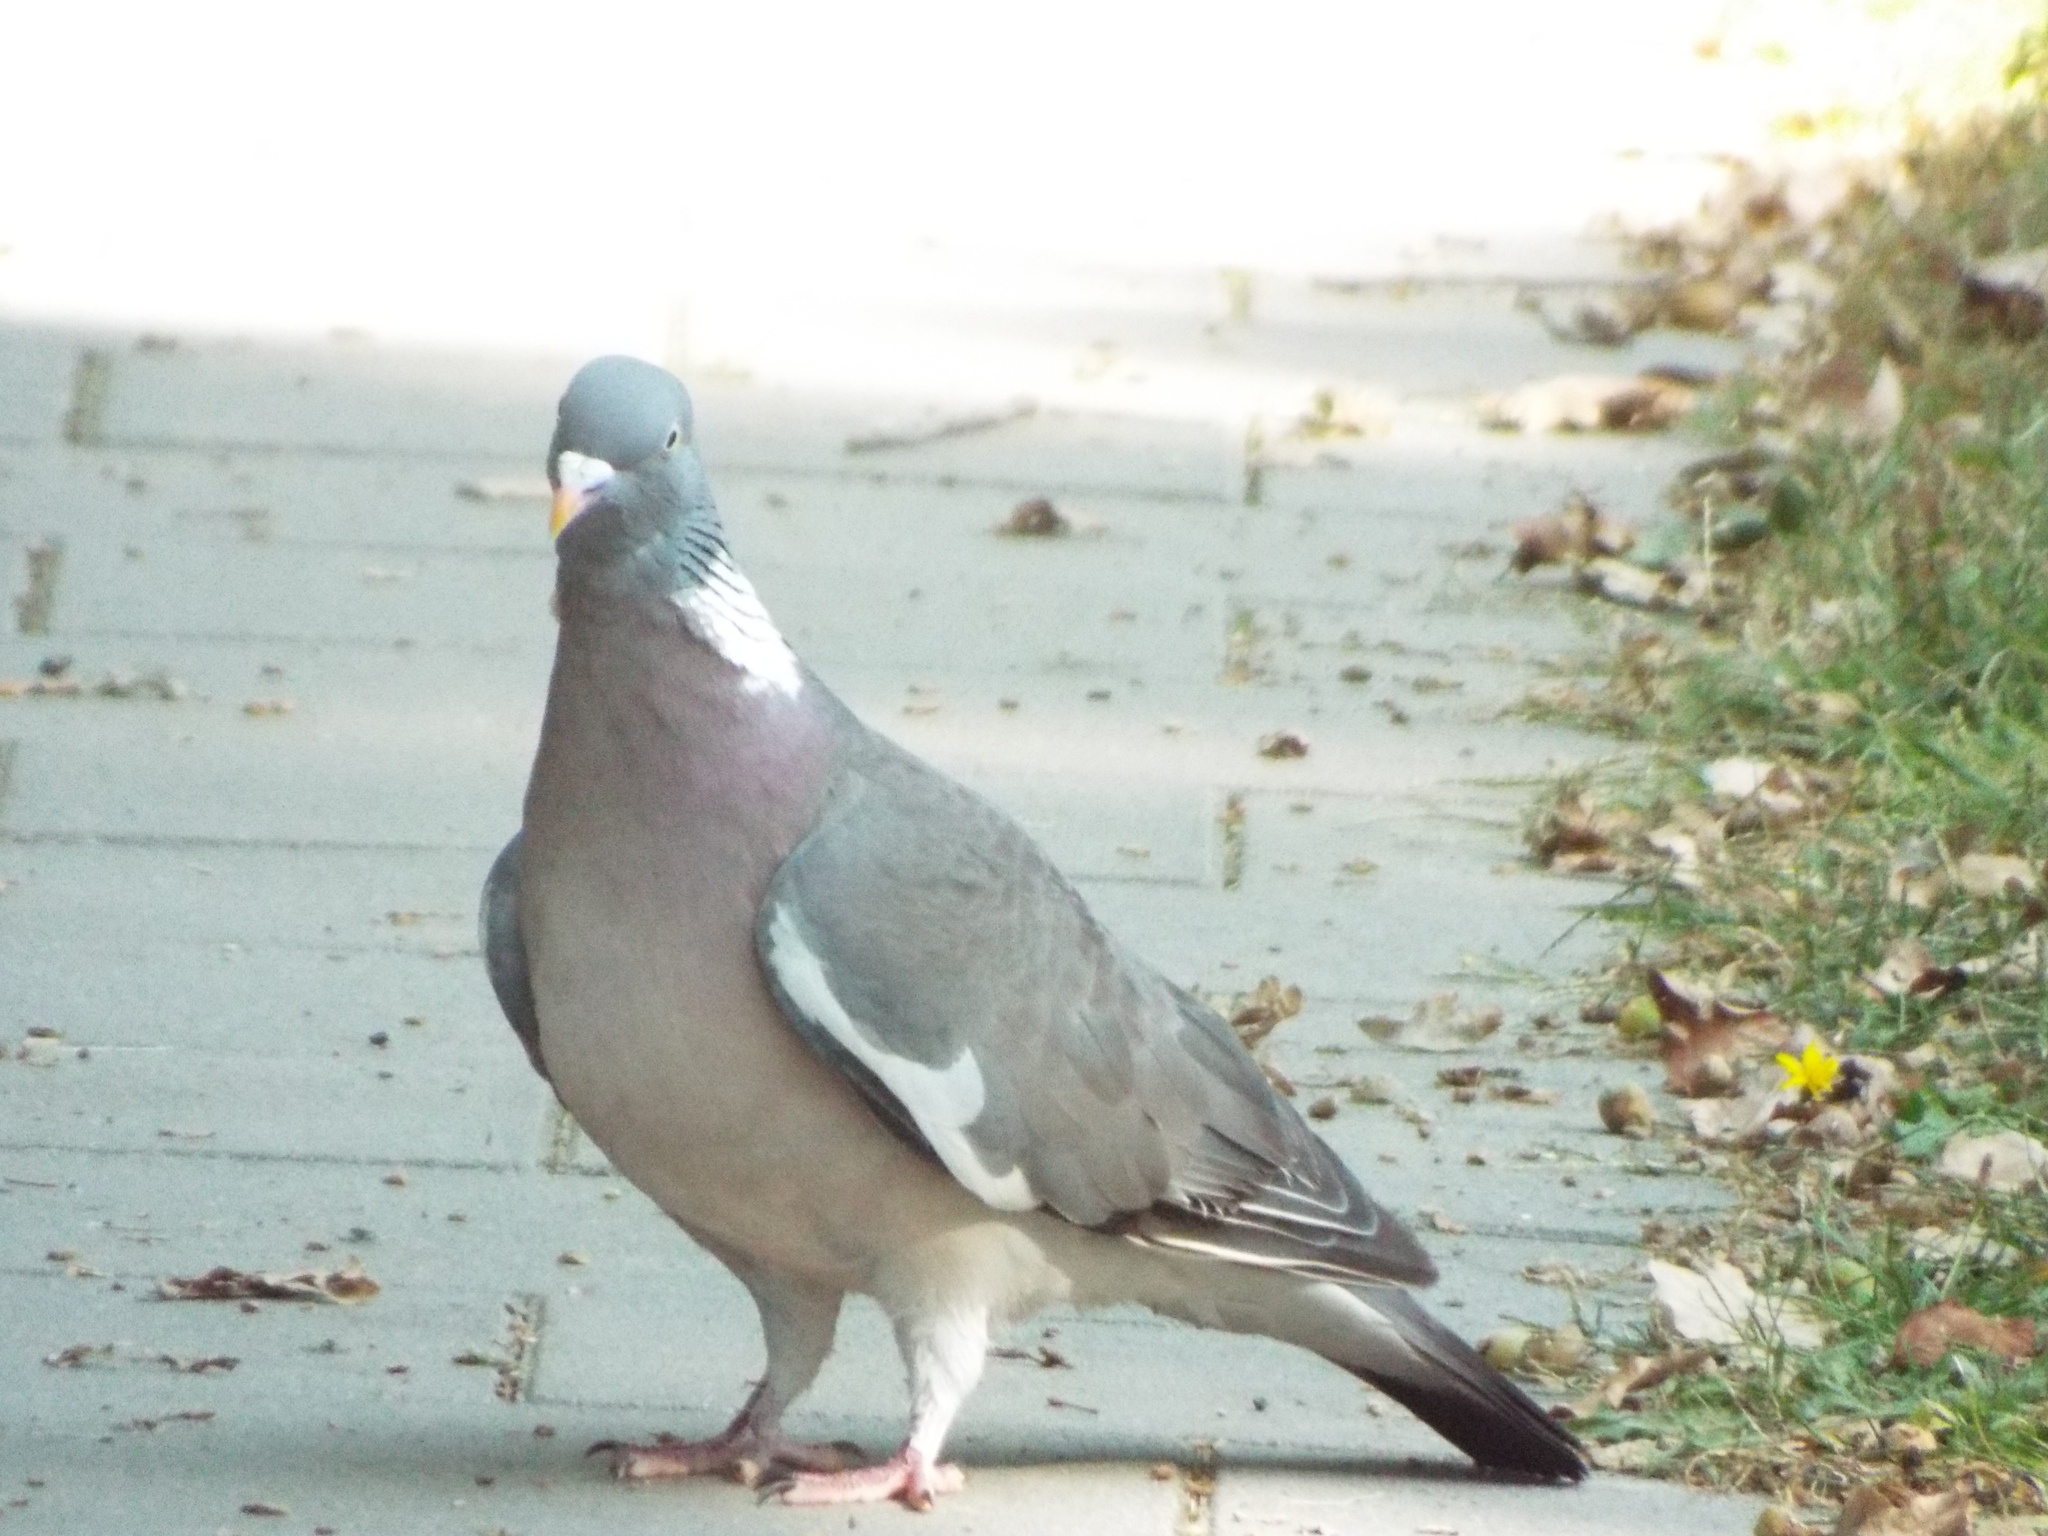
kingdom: Animalia
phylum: Chordata
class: Aves
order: Columbiformes
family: Columbidae
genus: Columba
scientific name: Columba palumbus
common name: Common wood pigeon
